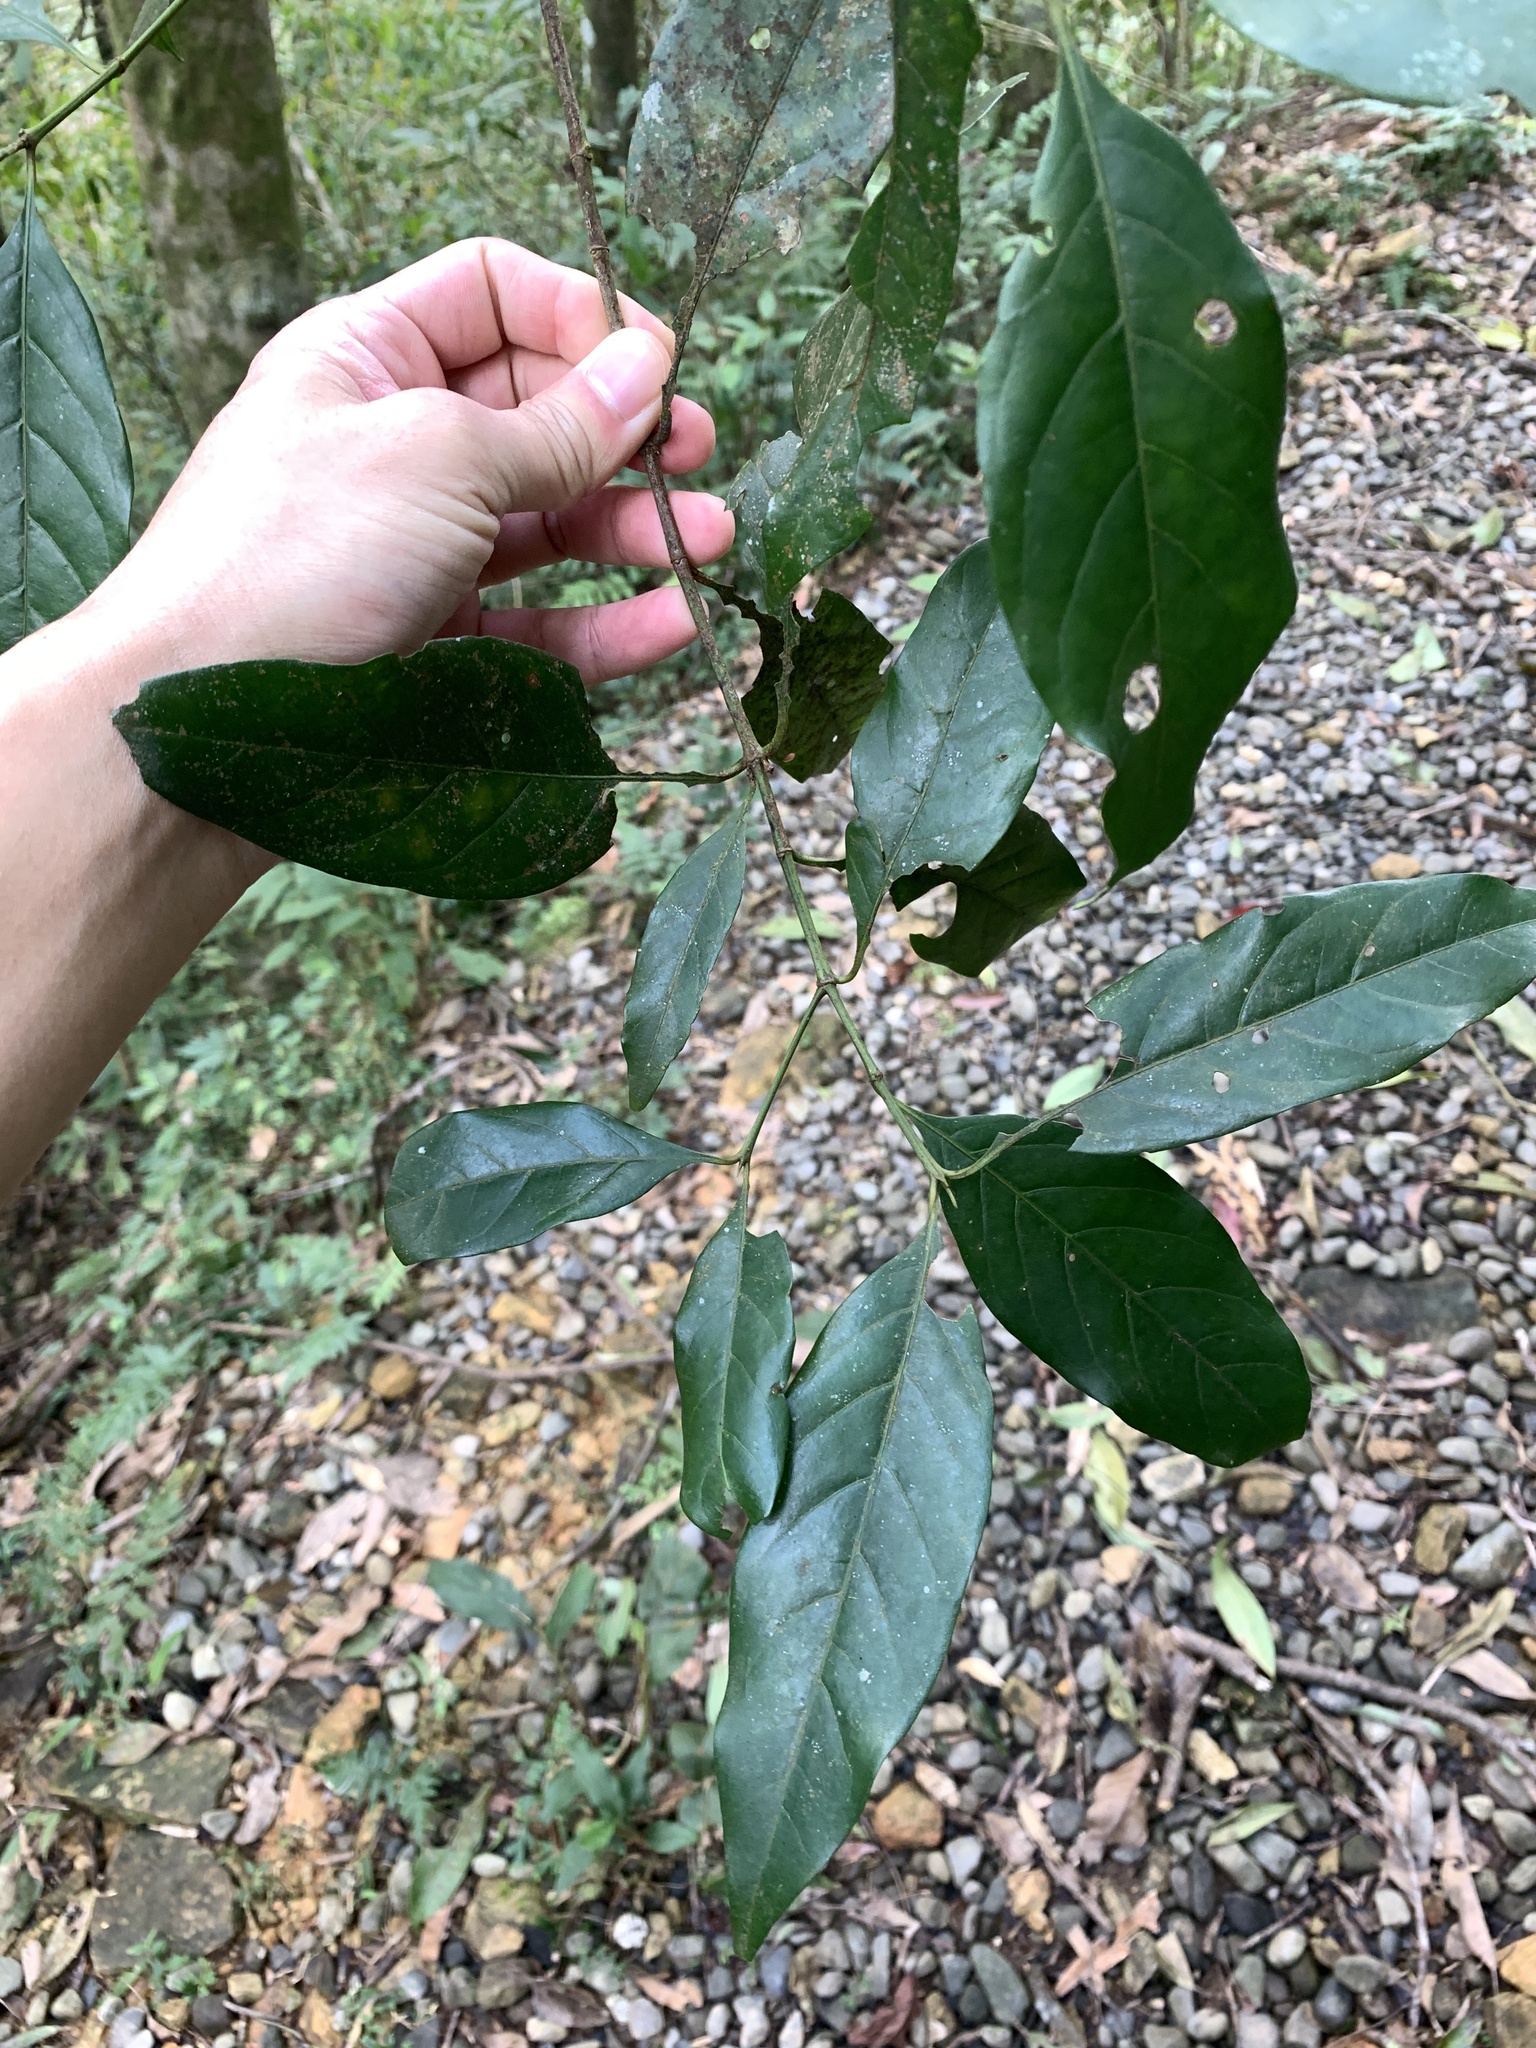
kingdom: Plantae
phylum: Tracheophyta
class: Magnoliopsida
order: Gentianales
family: Rubiaceae
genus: Aidia
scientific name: Aidia cochinchinensis
